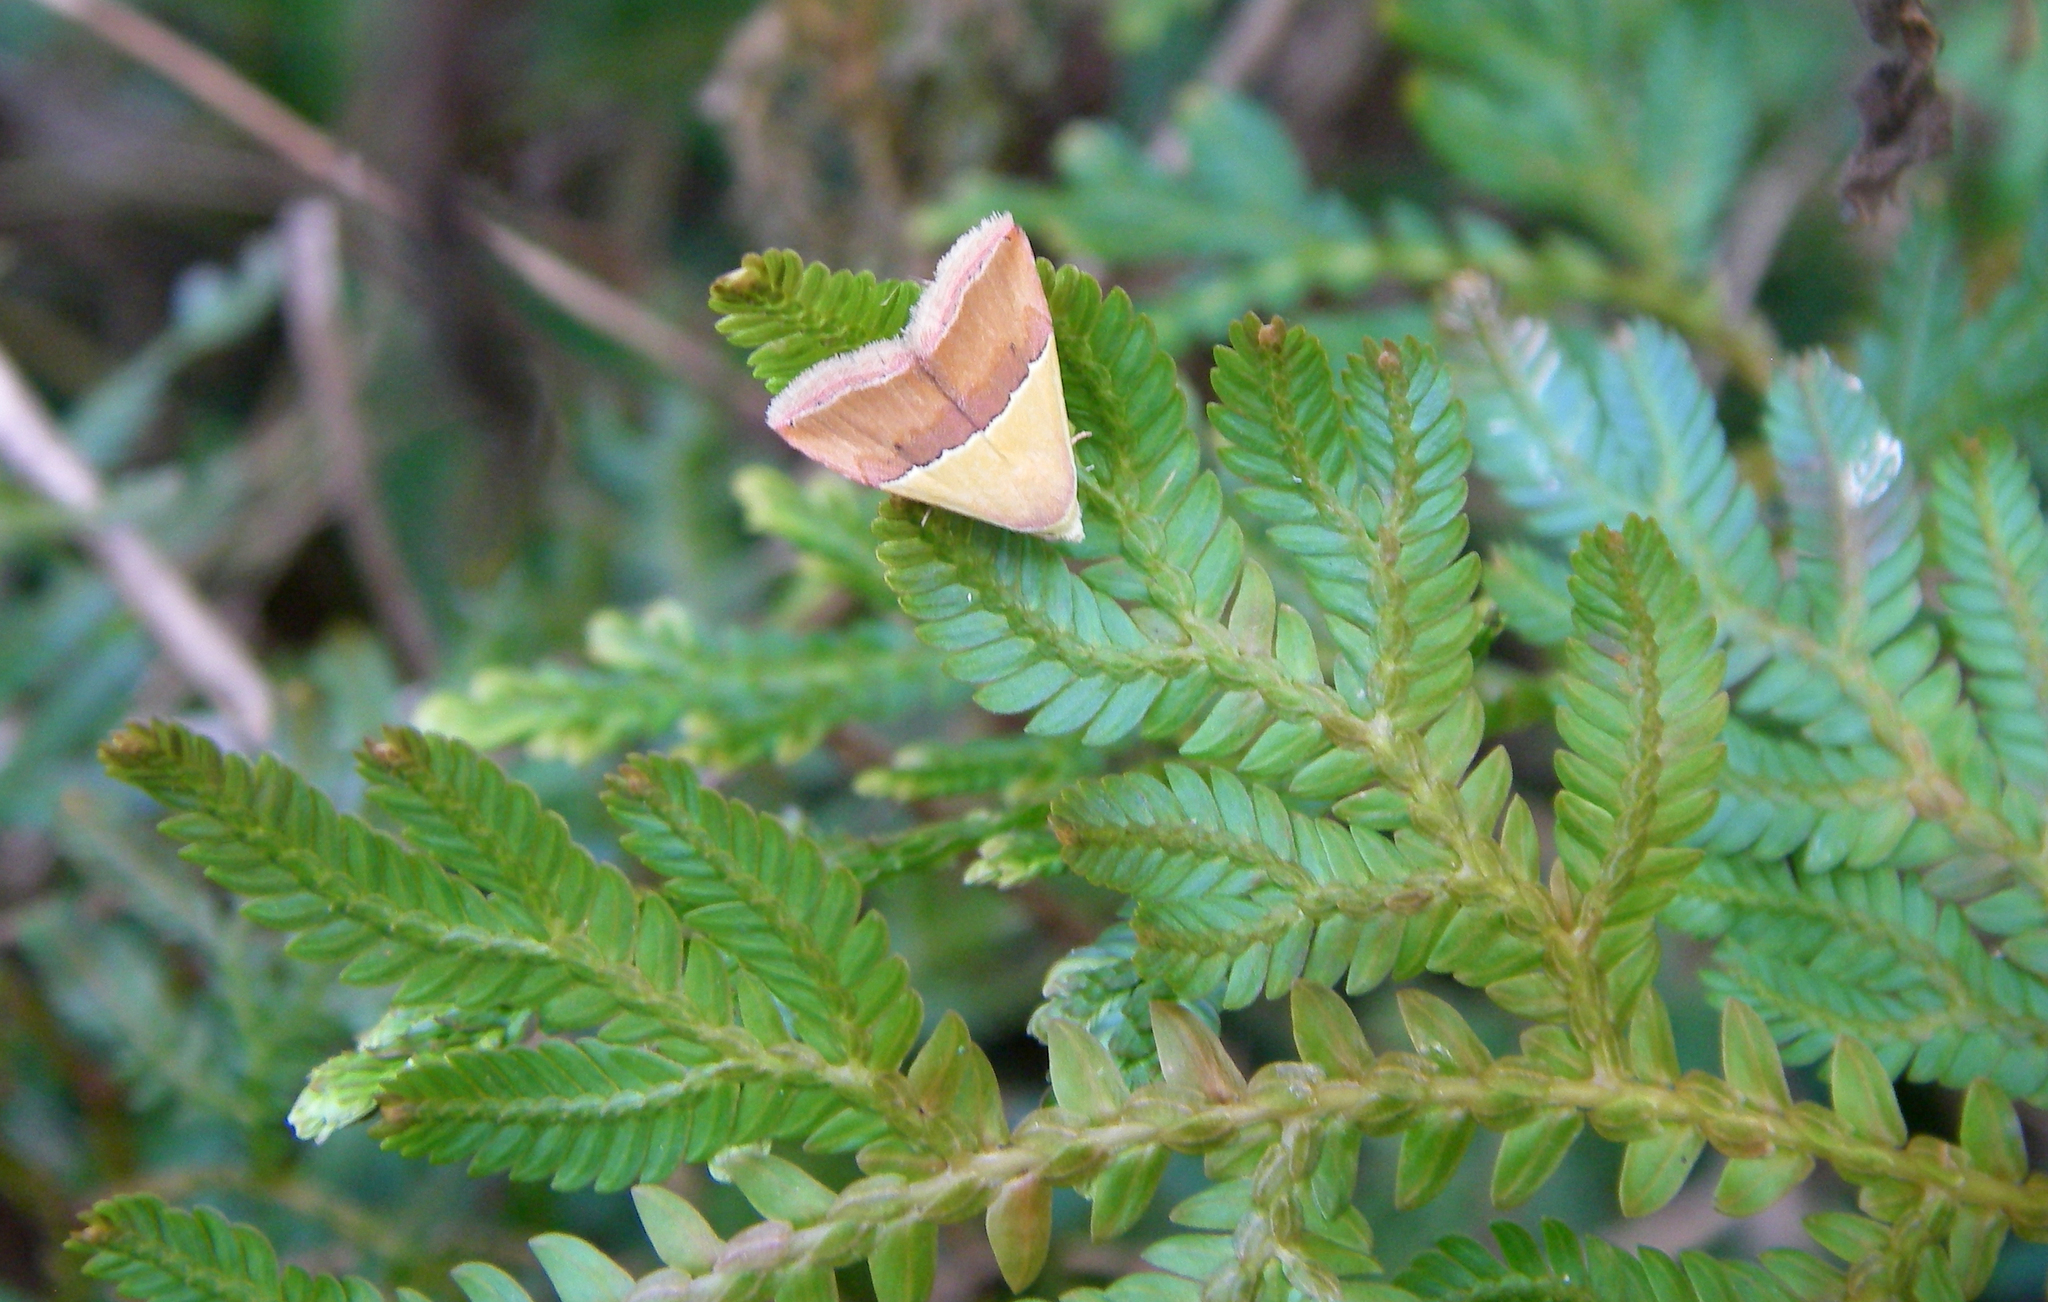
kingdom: Animalia
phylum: Arthropoda
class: Insecta
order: Lepidoptera
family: Noctuidae
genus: Eublemma
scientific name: Eublemma accedens
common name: Moth
